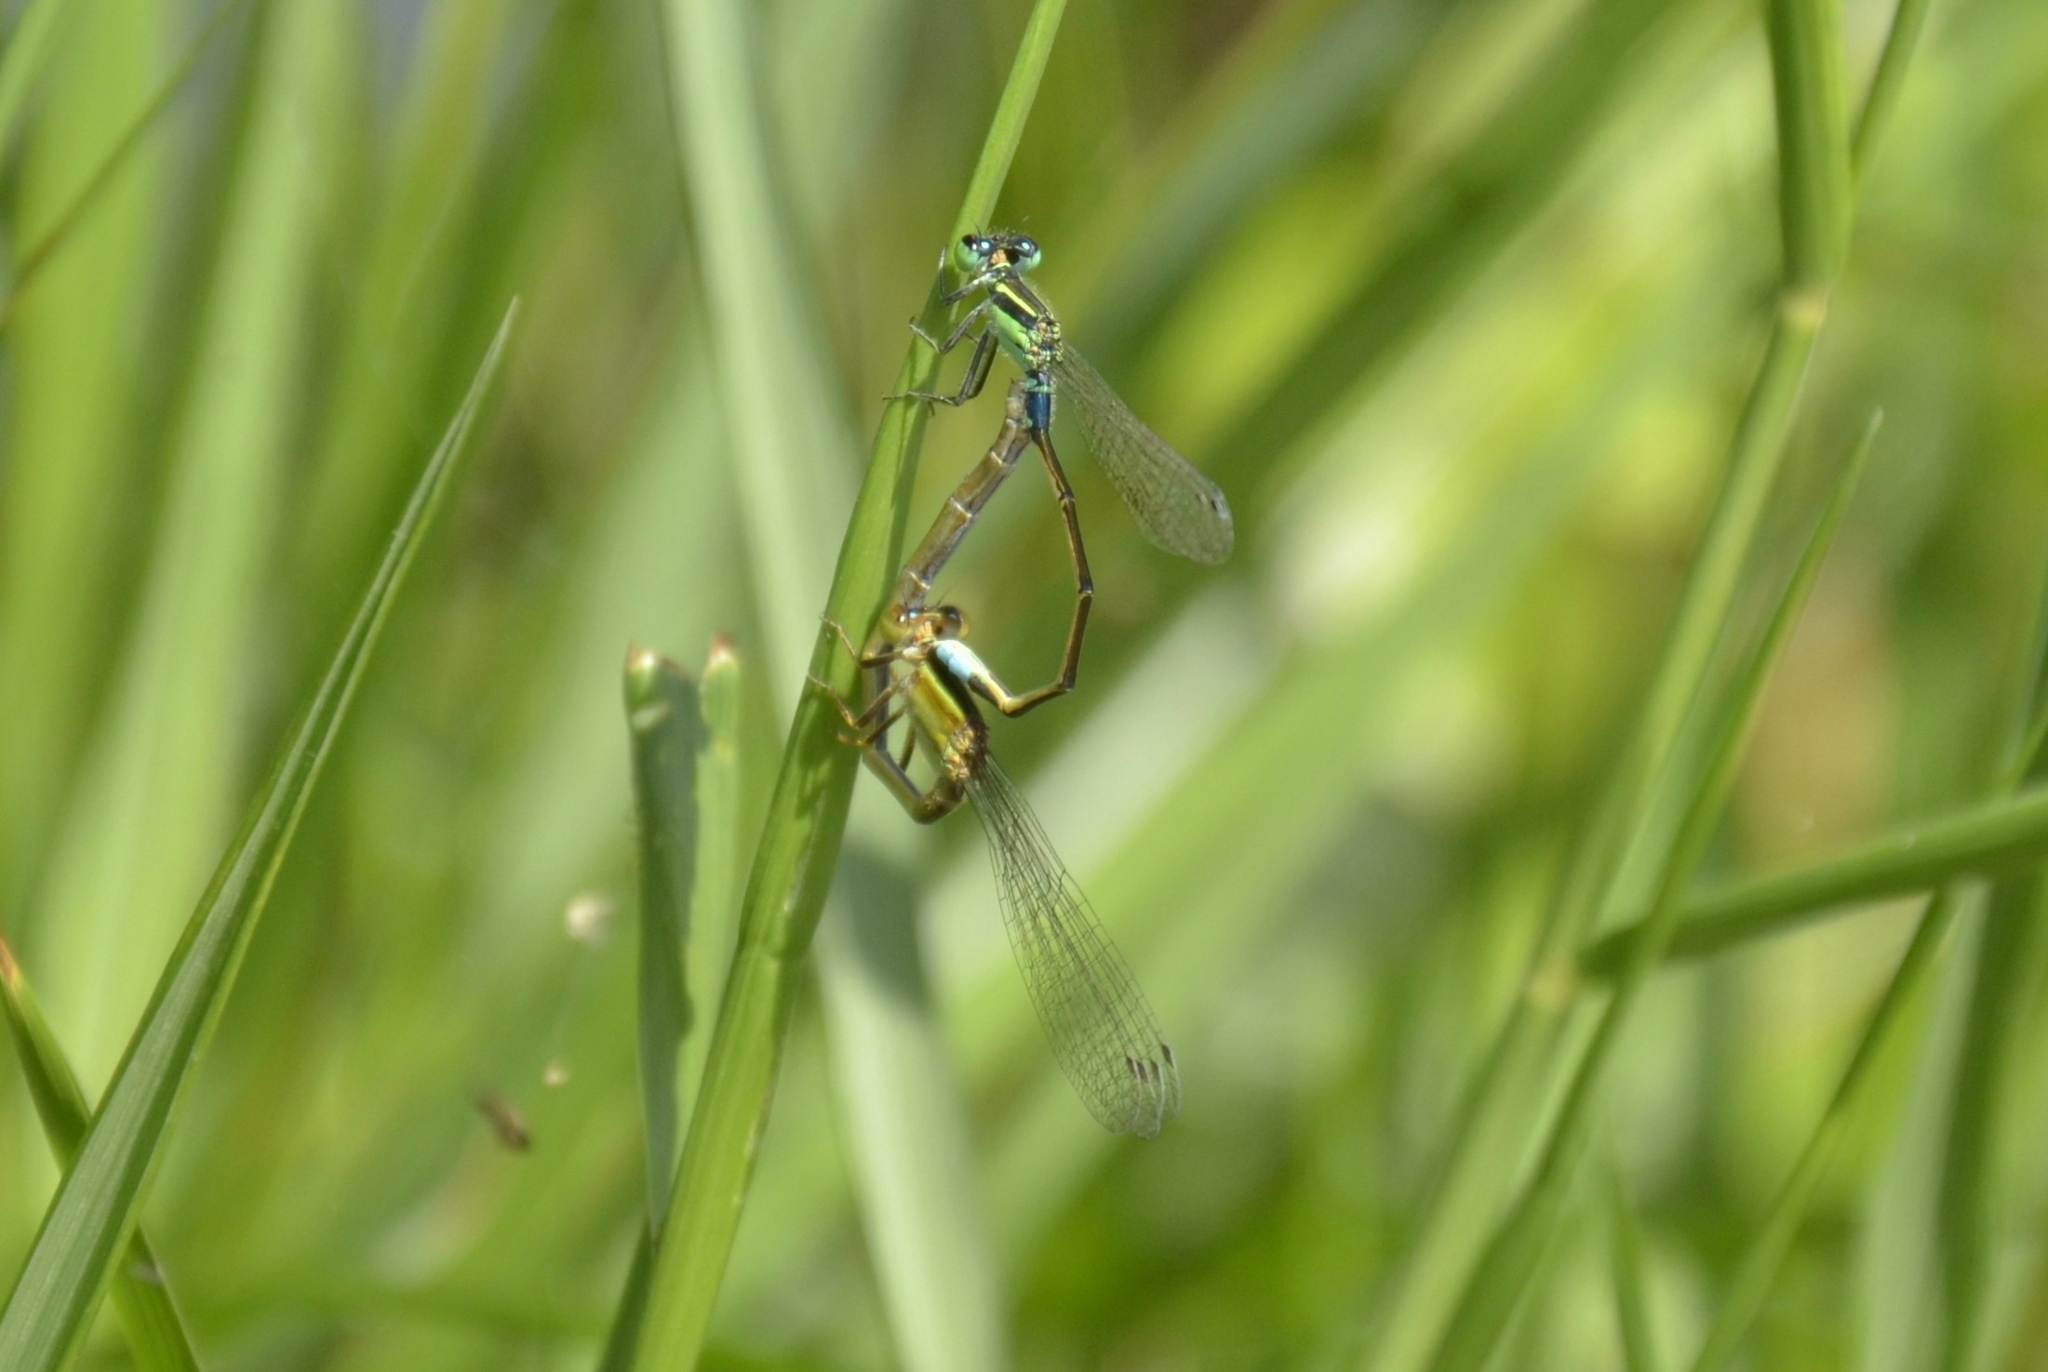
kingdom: Animalia
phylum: Arthropoda
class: Insecta
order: Odonata
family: Coenagrionidae
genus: Ischnura
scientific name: Ischnura senegalensis
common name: Tropical bluetail
